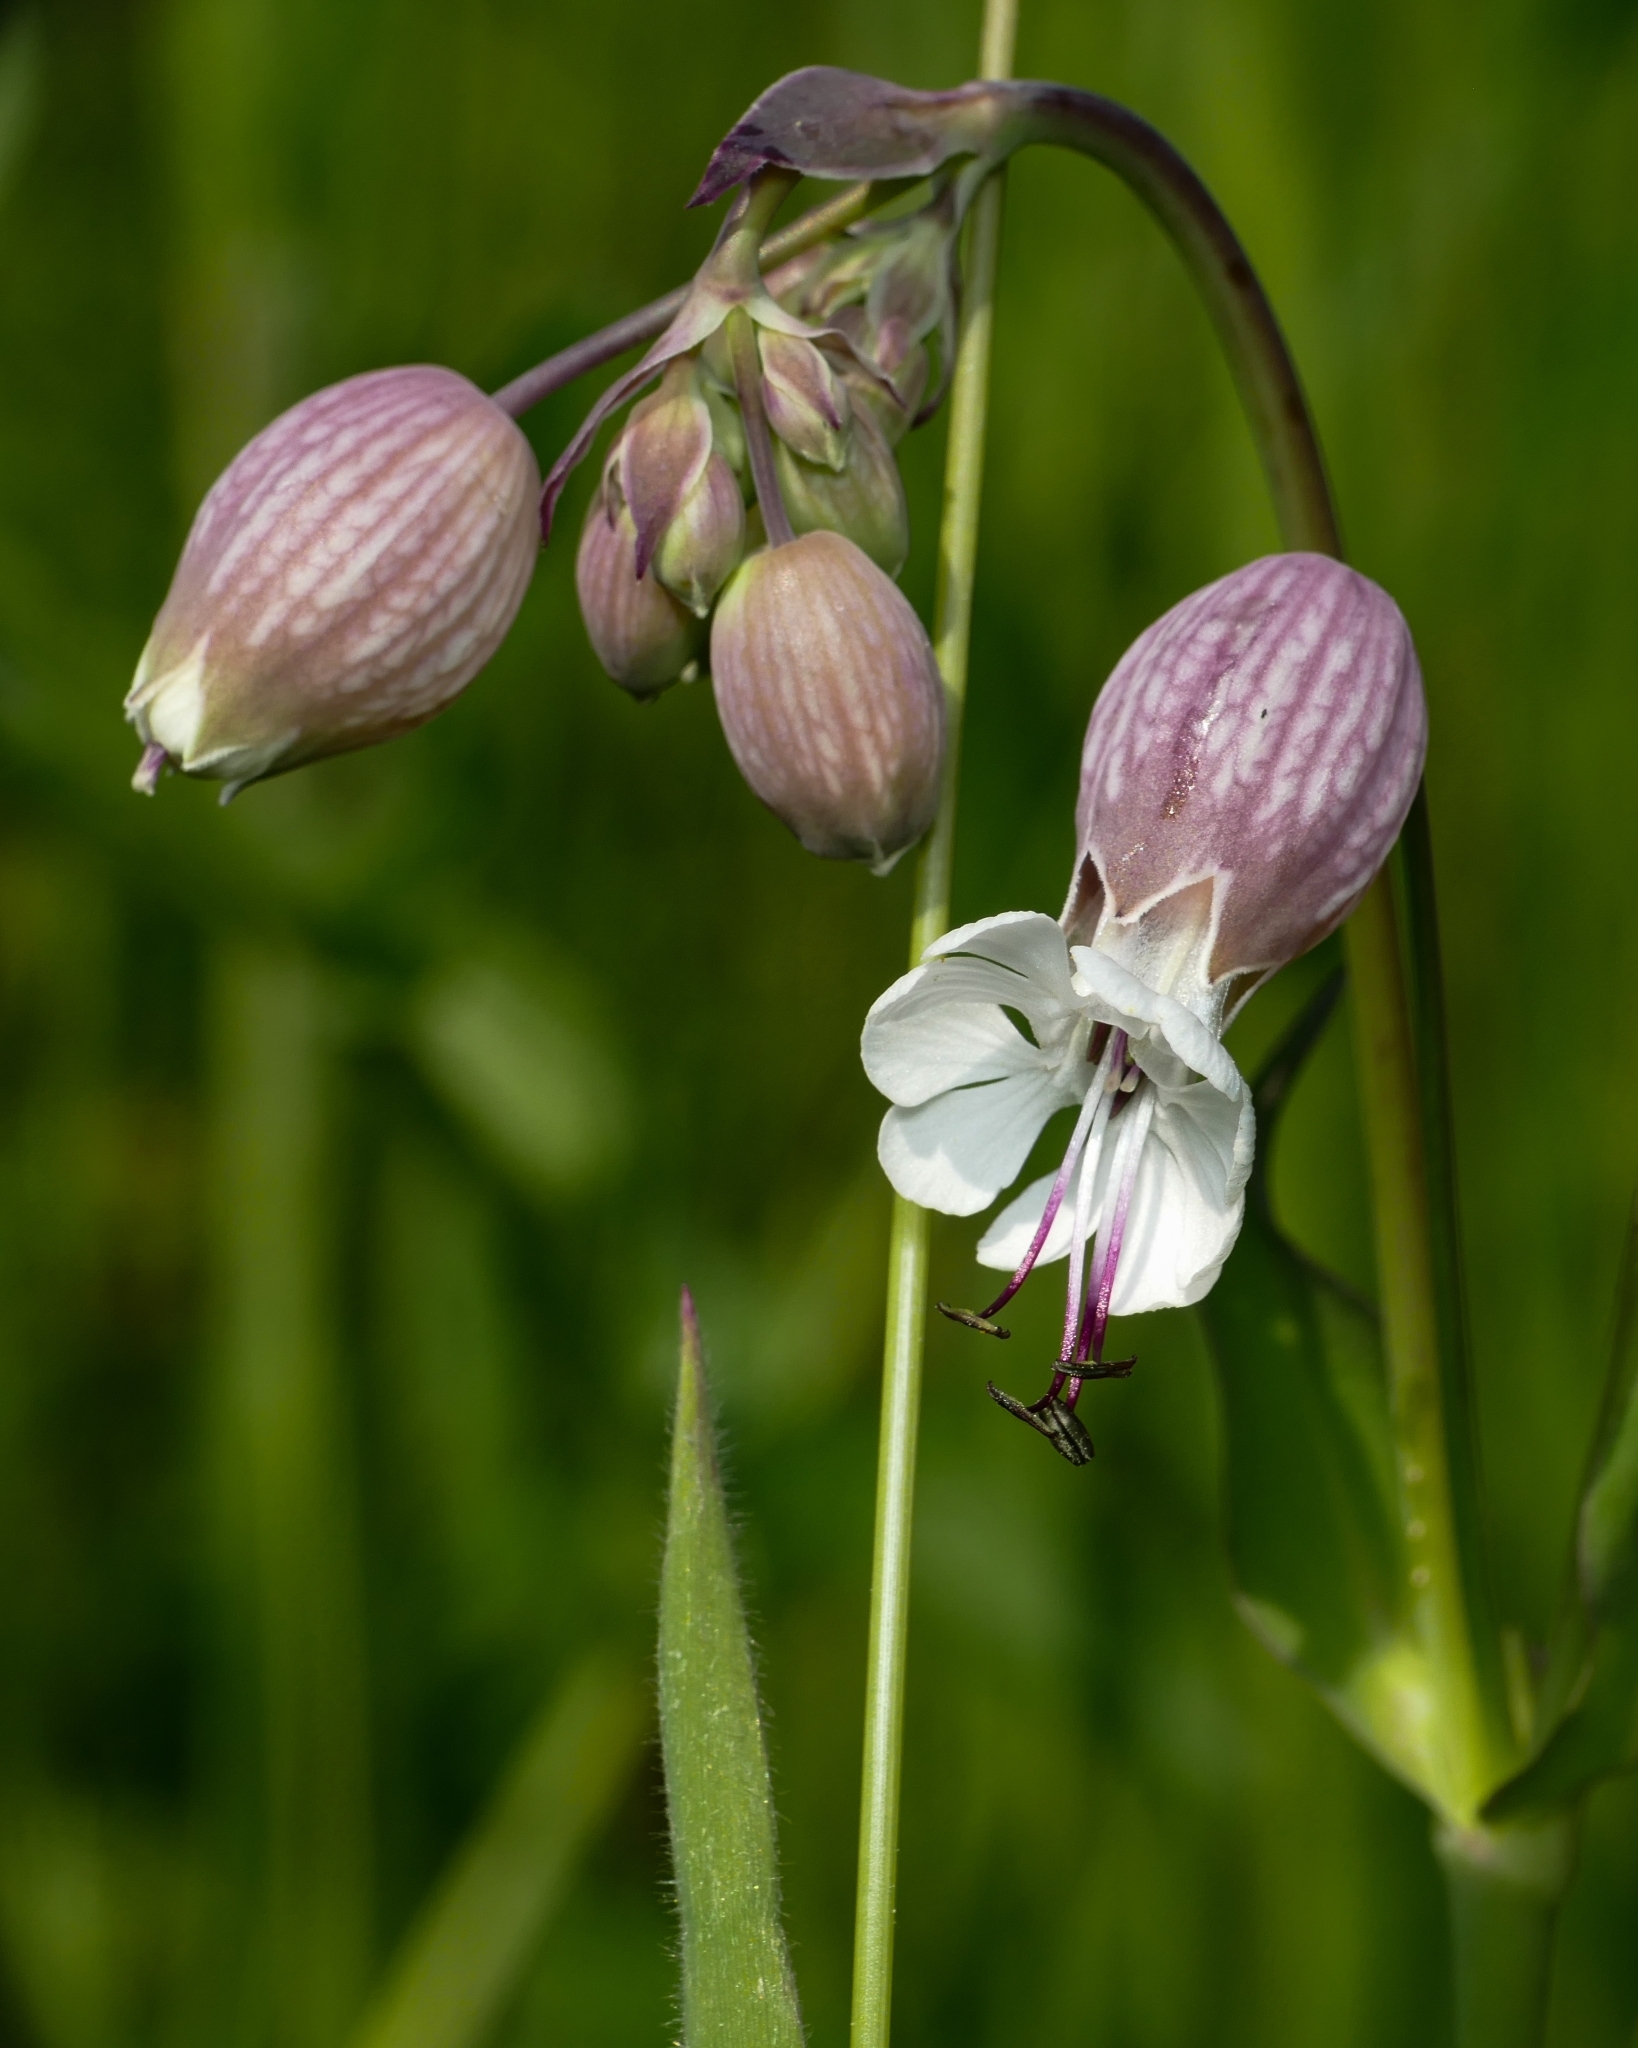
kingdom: Plantae
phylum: Tracheophyta
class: Magnoliopsida
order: Caryophyllales
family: Caryophyllaceae
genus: Silene
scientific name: Silene vulgaris
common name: Bladder campion
